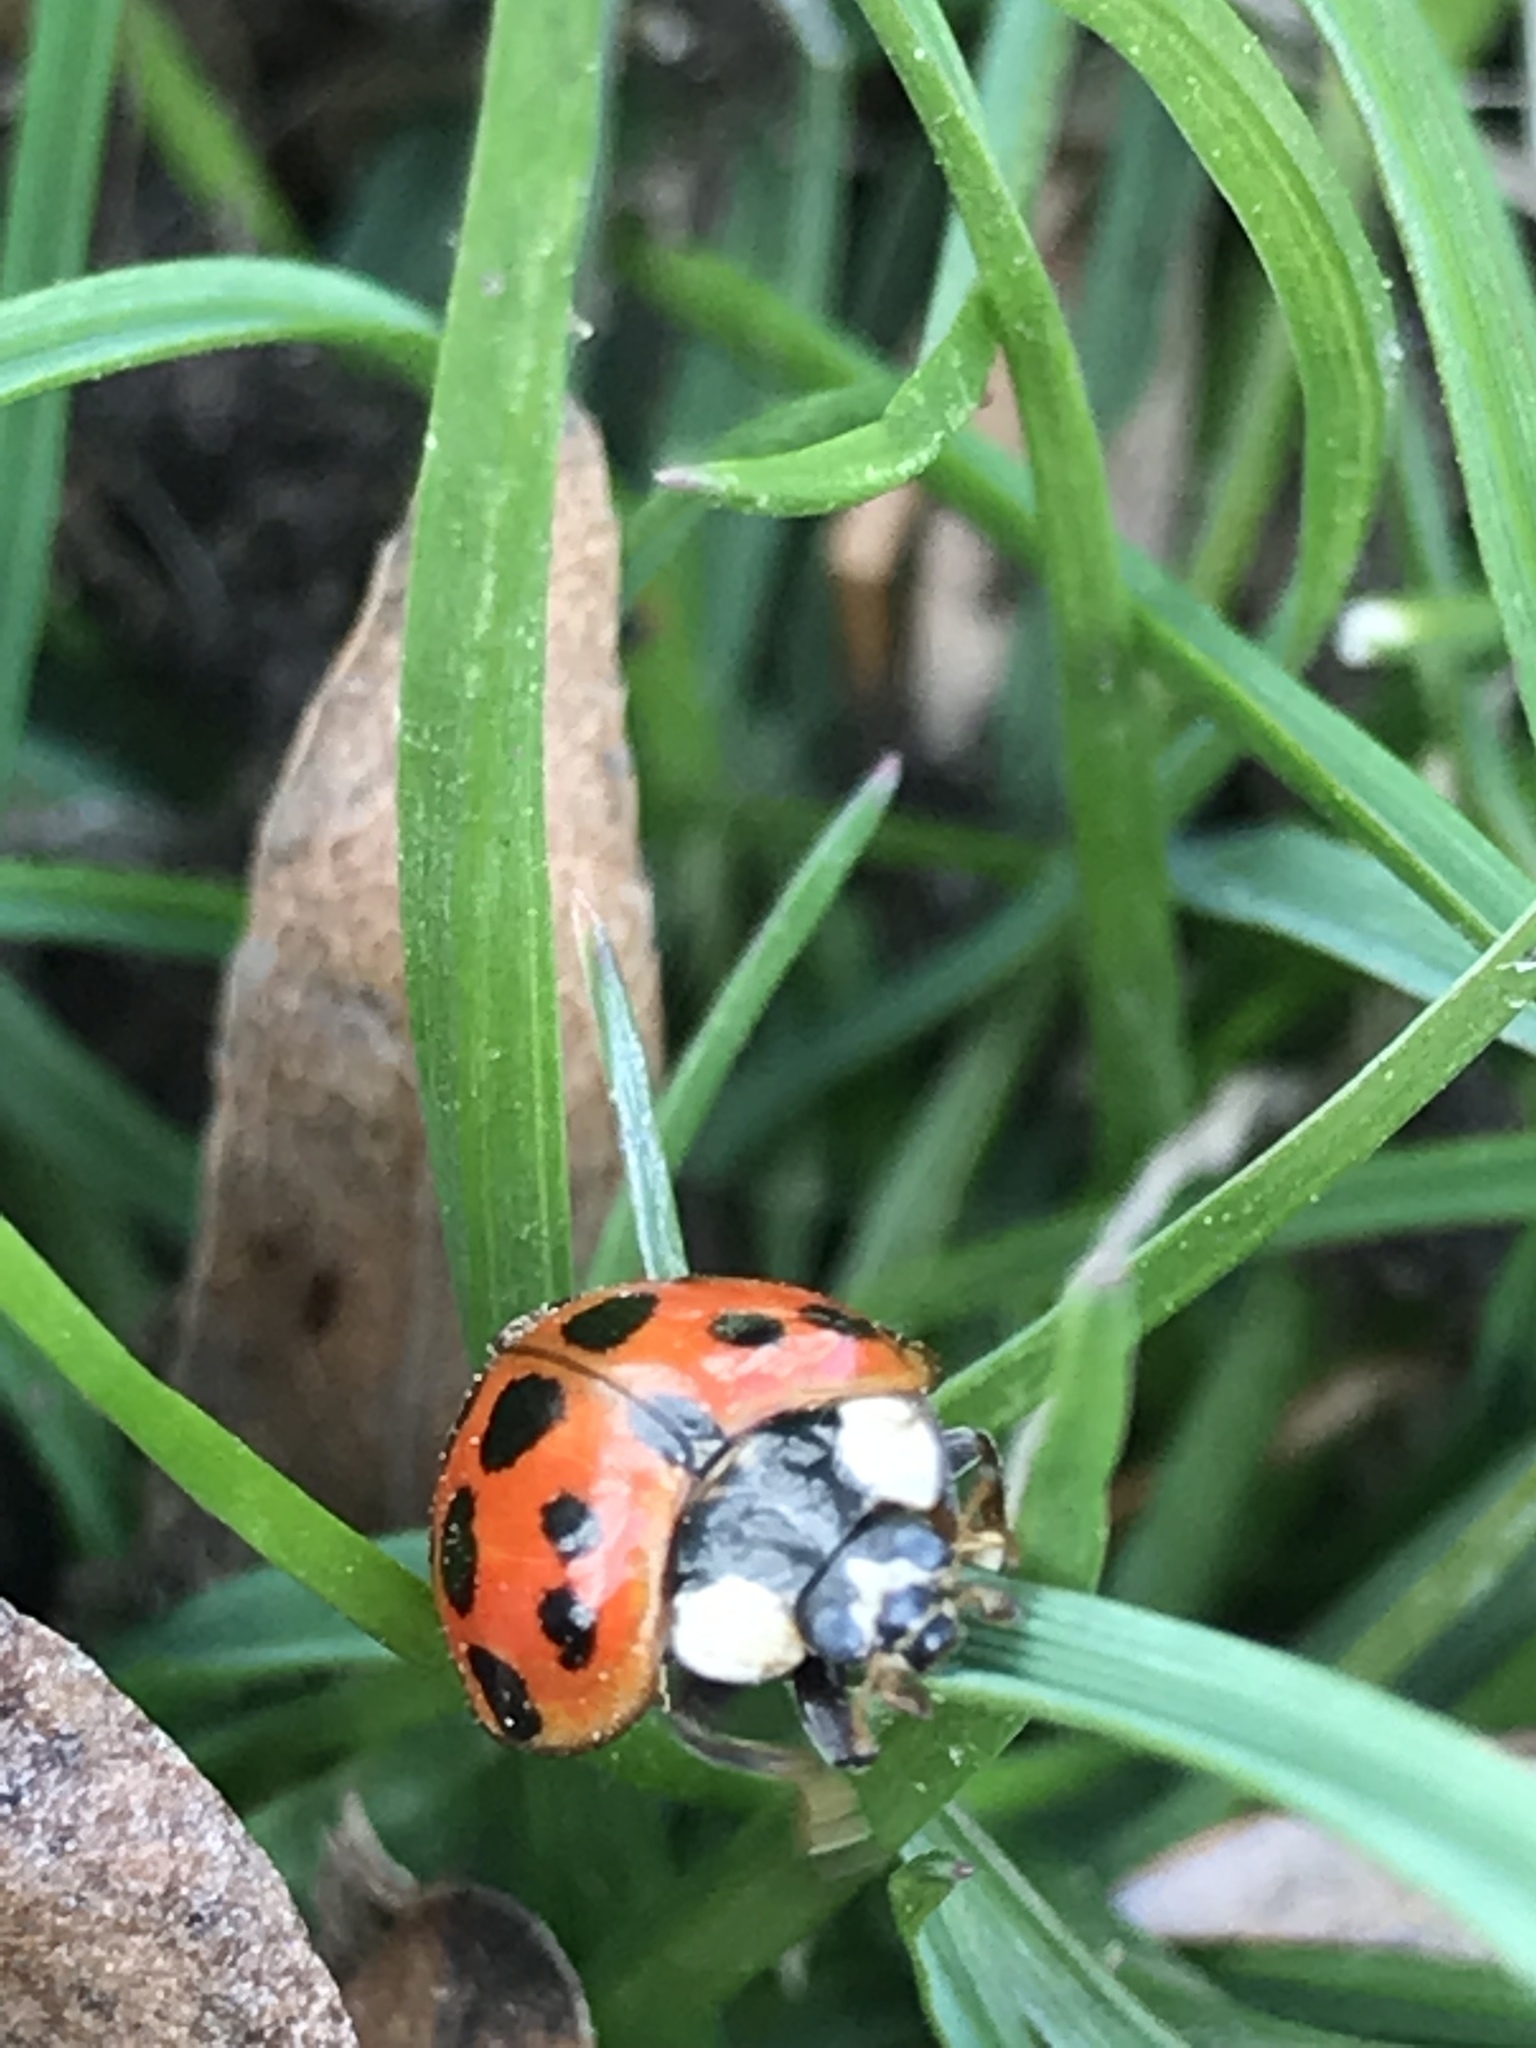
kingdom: Animalia
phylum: Arthropoda
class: Insecta
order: Coleoptera
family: Coccinellidae
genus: Harmonia
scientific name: Harmonia axyridis
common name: Harlequin ladybird
